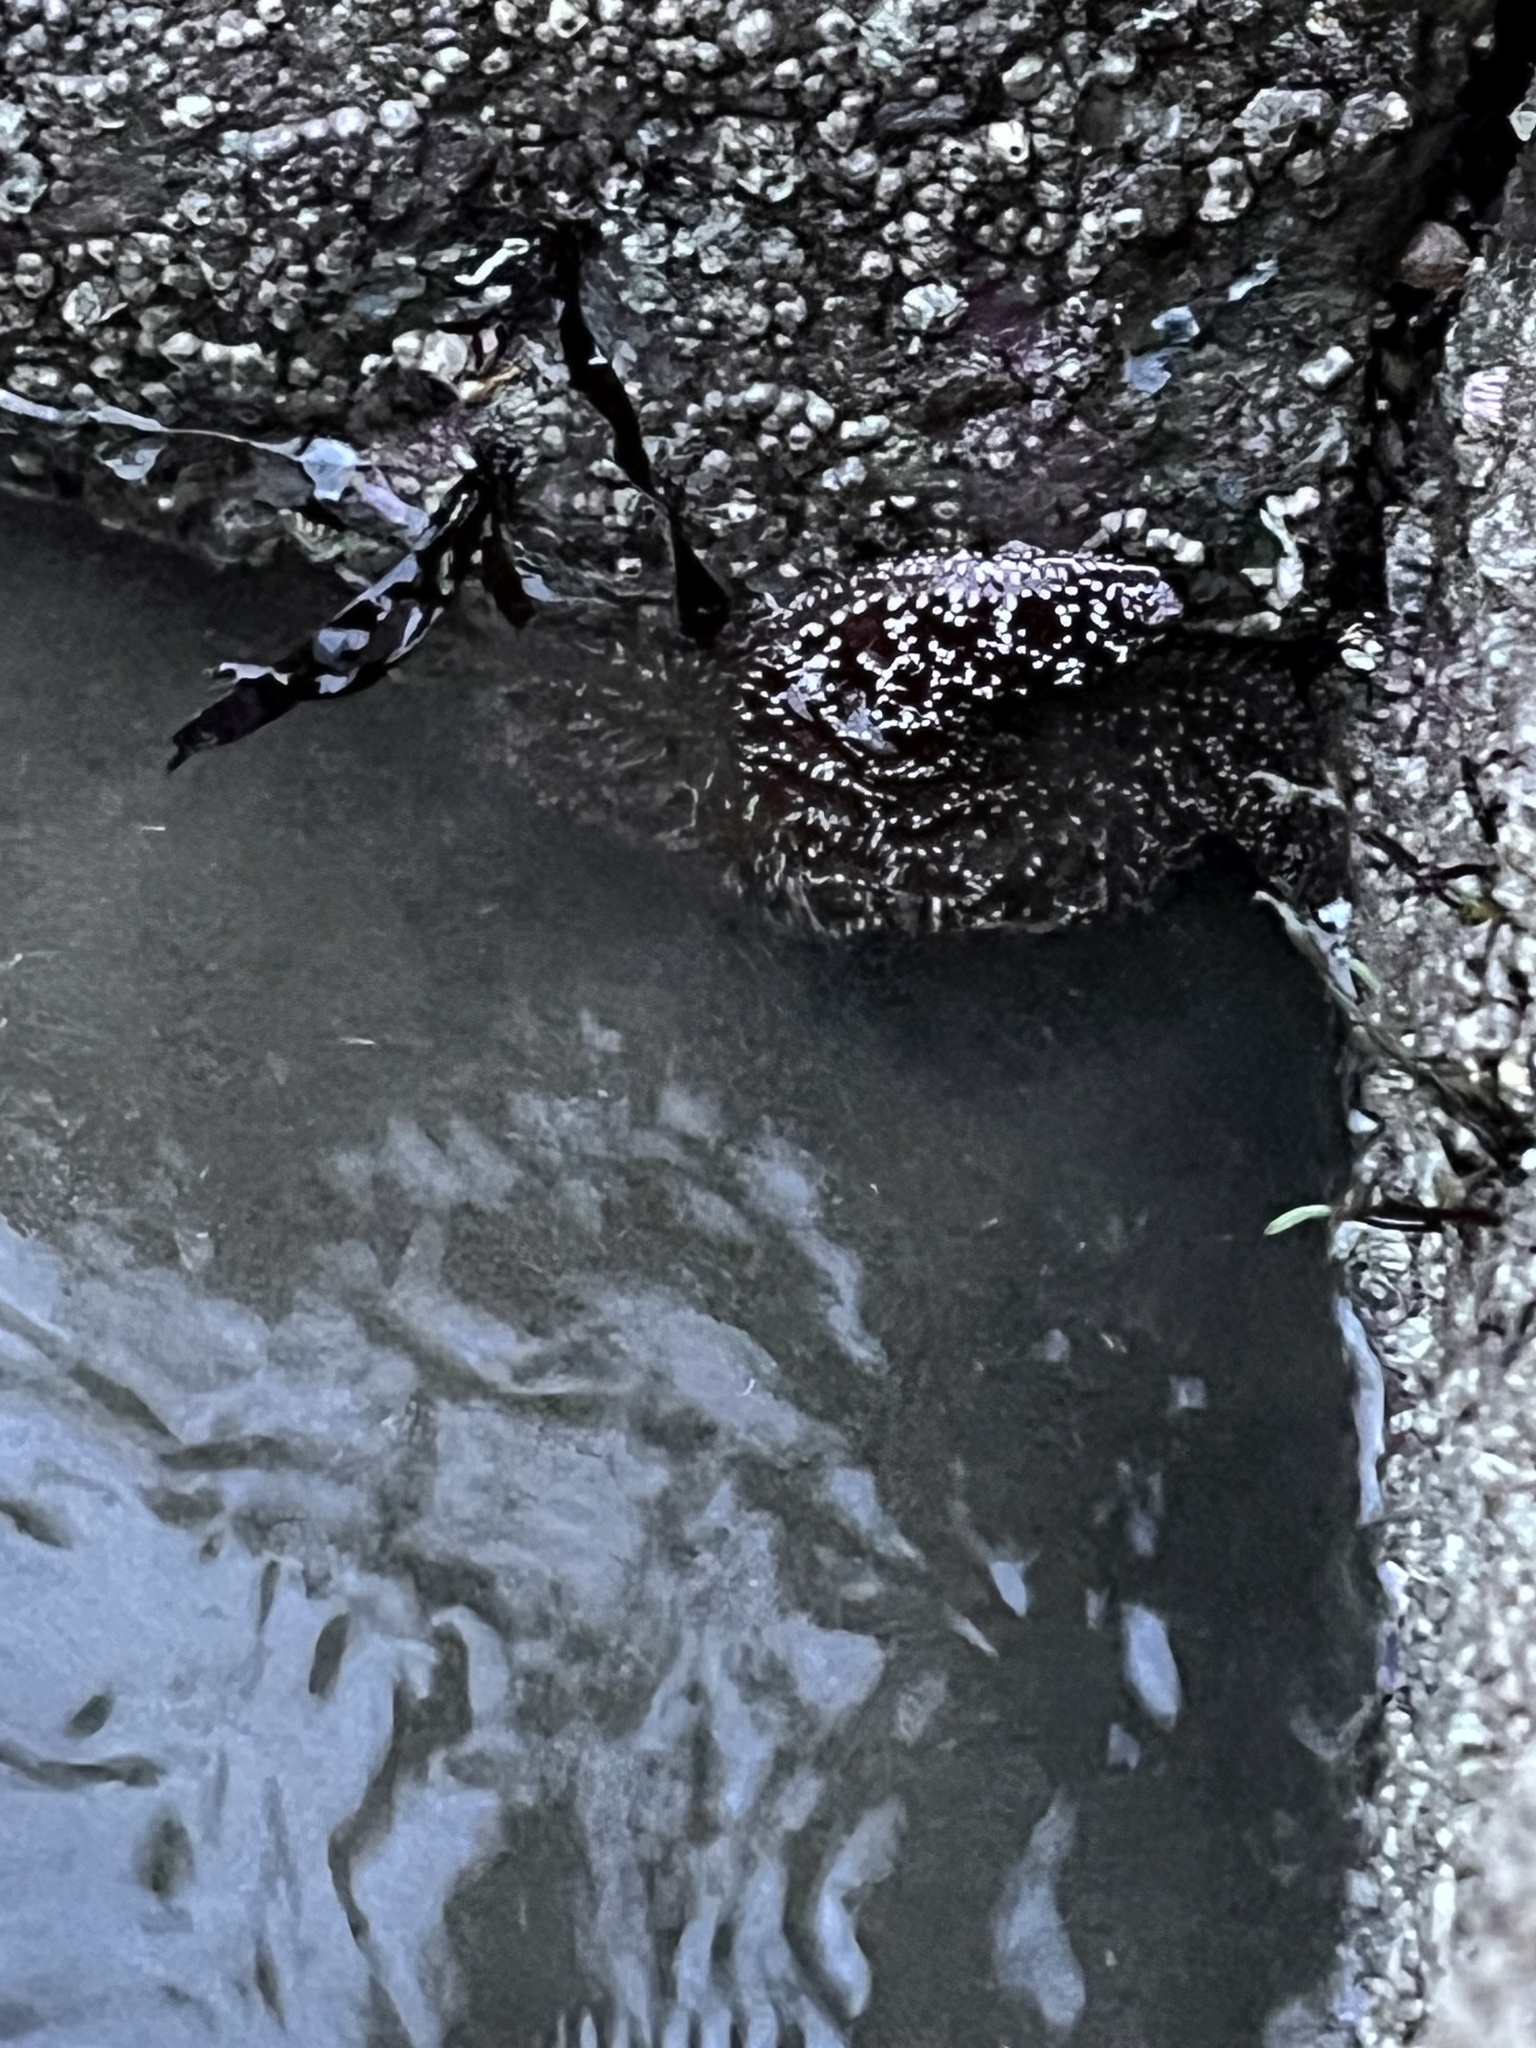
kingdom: Animalia
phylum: Echinodermata
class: Asteroidea
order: Forcipulatida
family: Asteriidae
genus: Pisaster
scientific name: Pisaster ochraceus
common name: Ochre stars
